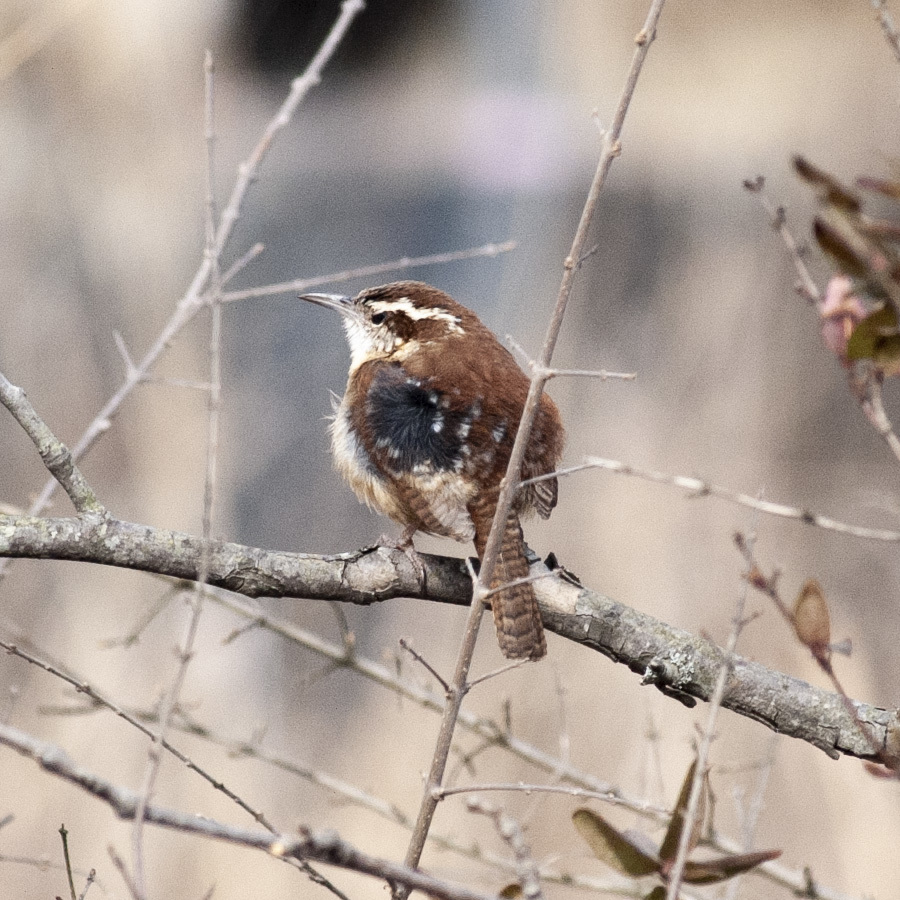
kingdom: Animalia
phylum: Chordata
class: Aves
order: Passeriformes
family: Troglodytidae
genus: Thryothorus
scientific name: Thryothorus ludovicianus
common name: Carolina wren
